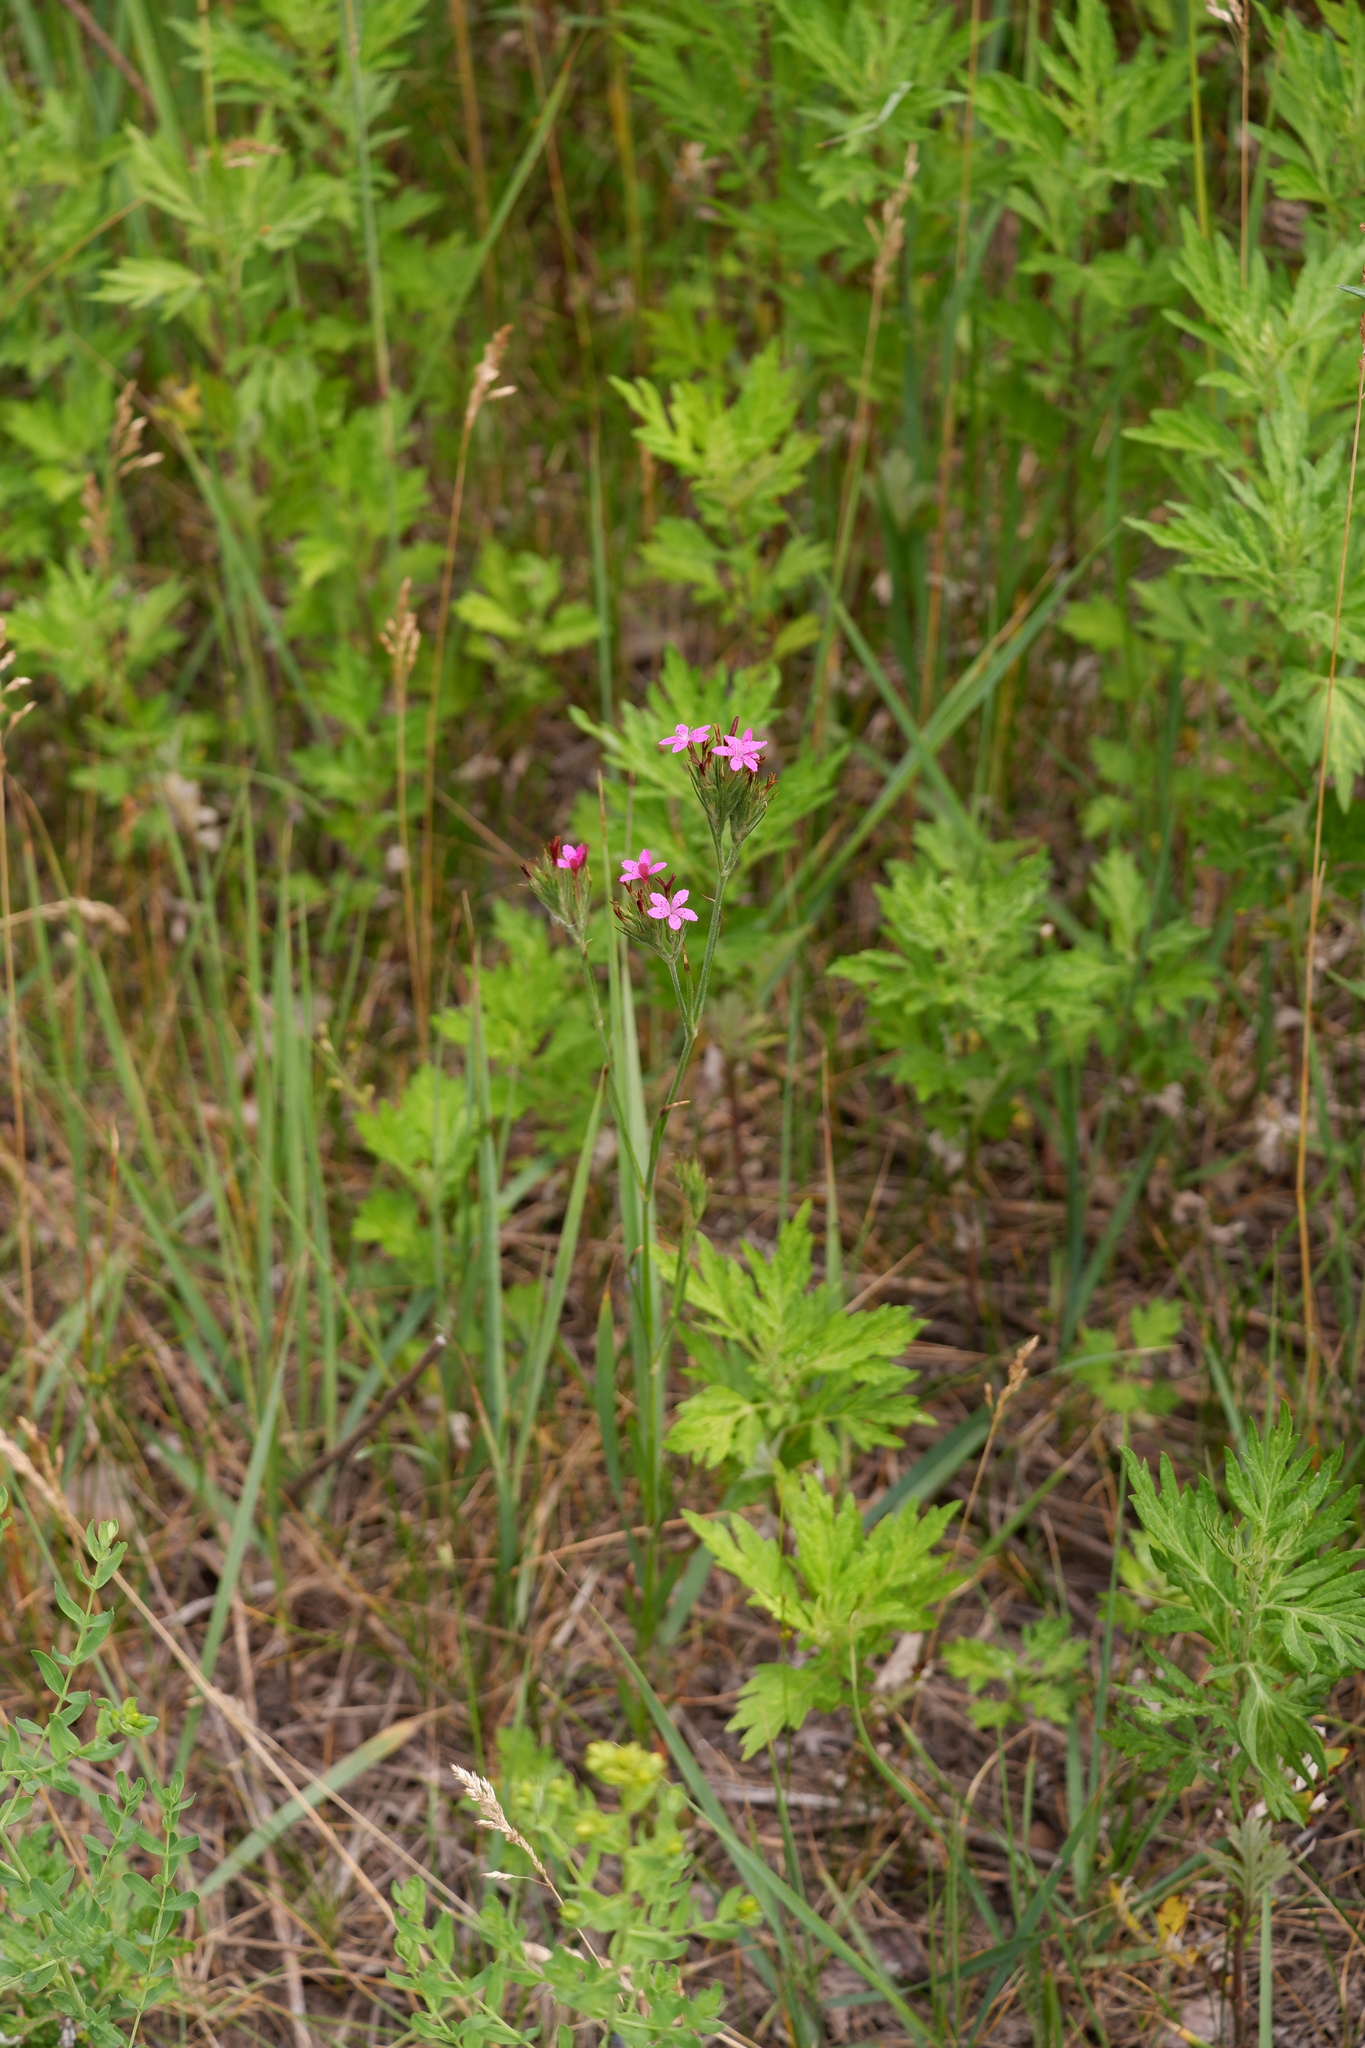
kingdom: Plantae
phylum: Tracheophyta
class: Magnoliopsida
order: Caryophyllales
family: Caryophyllaceae
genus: Dianthus
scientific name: Dianthus armeria
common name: Deptford pink
